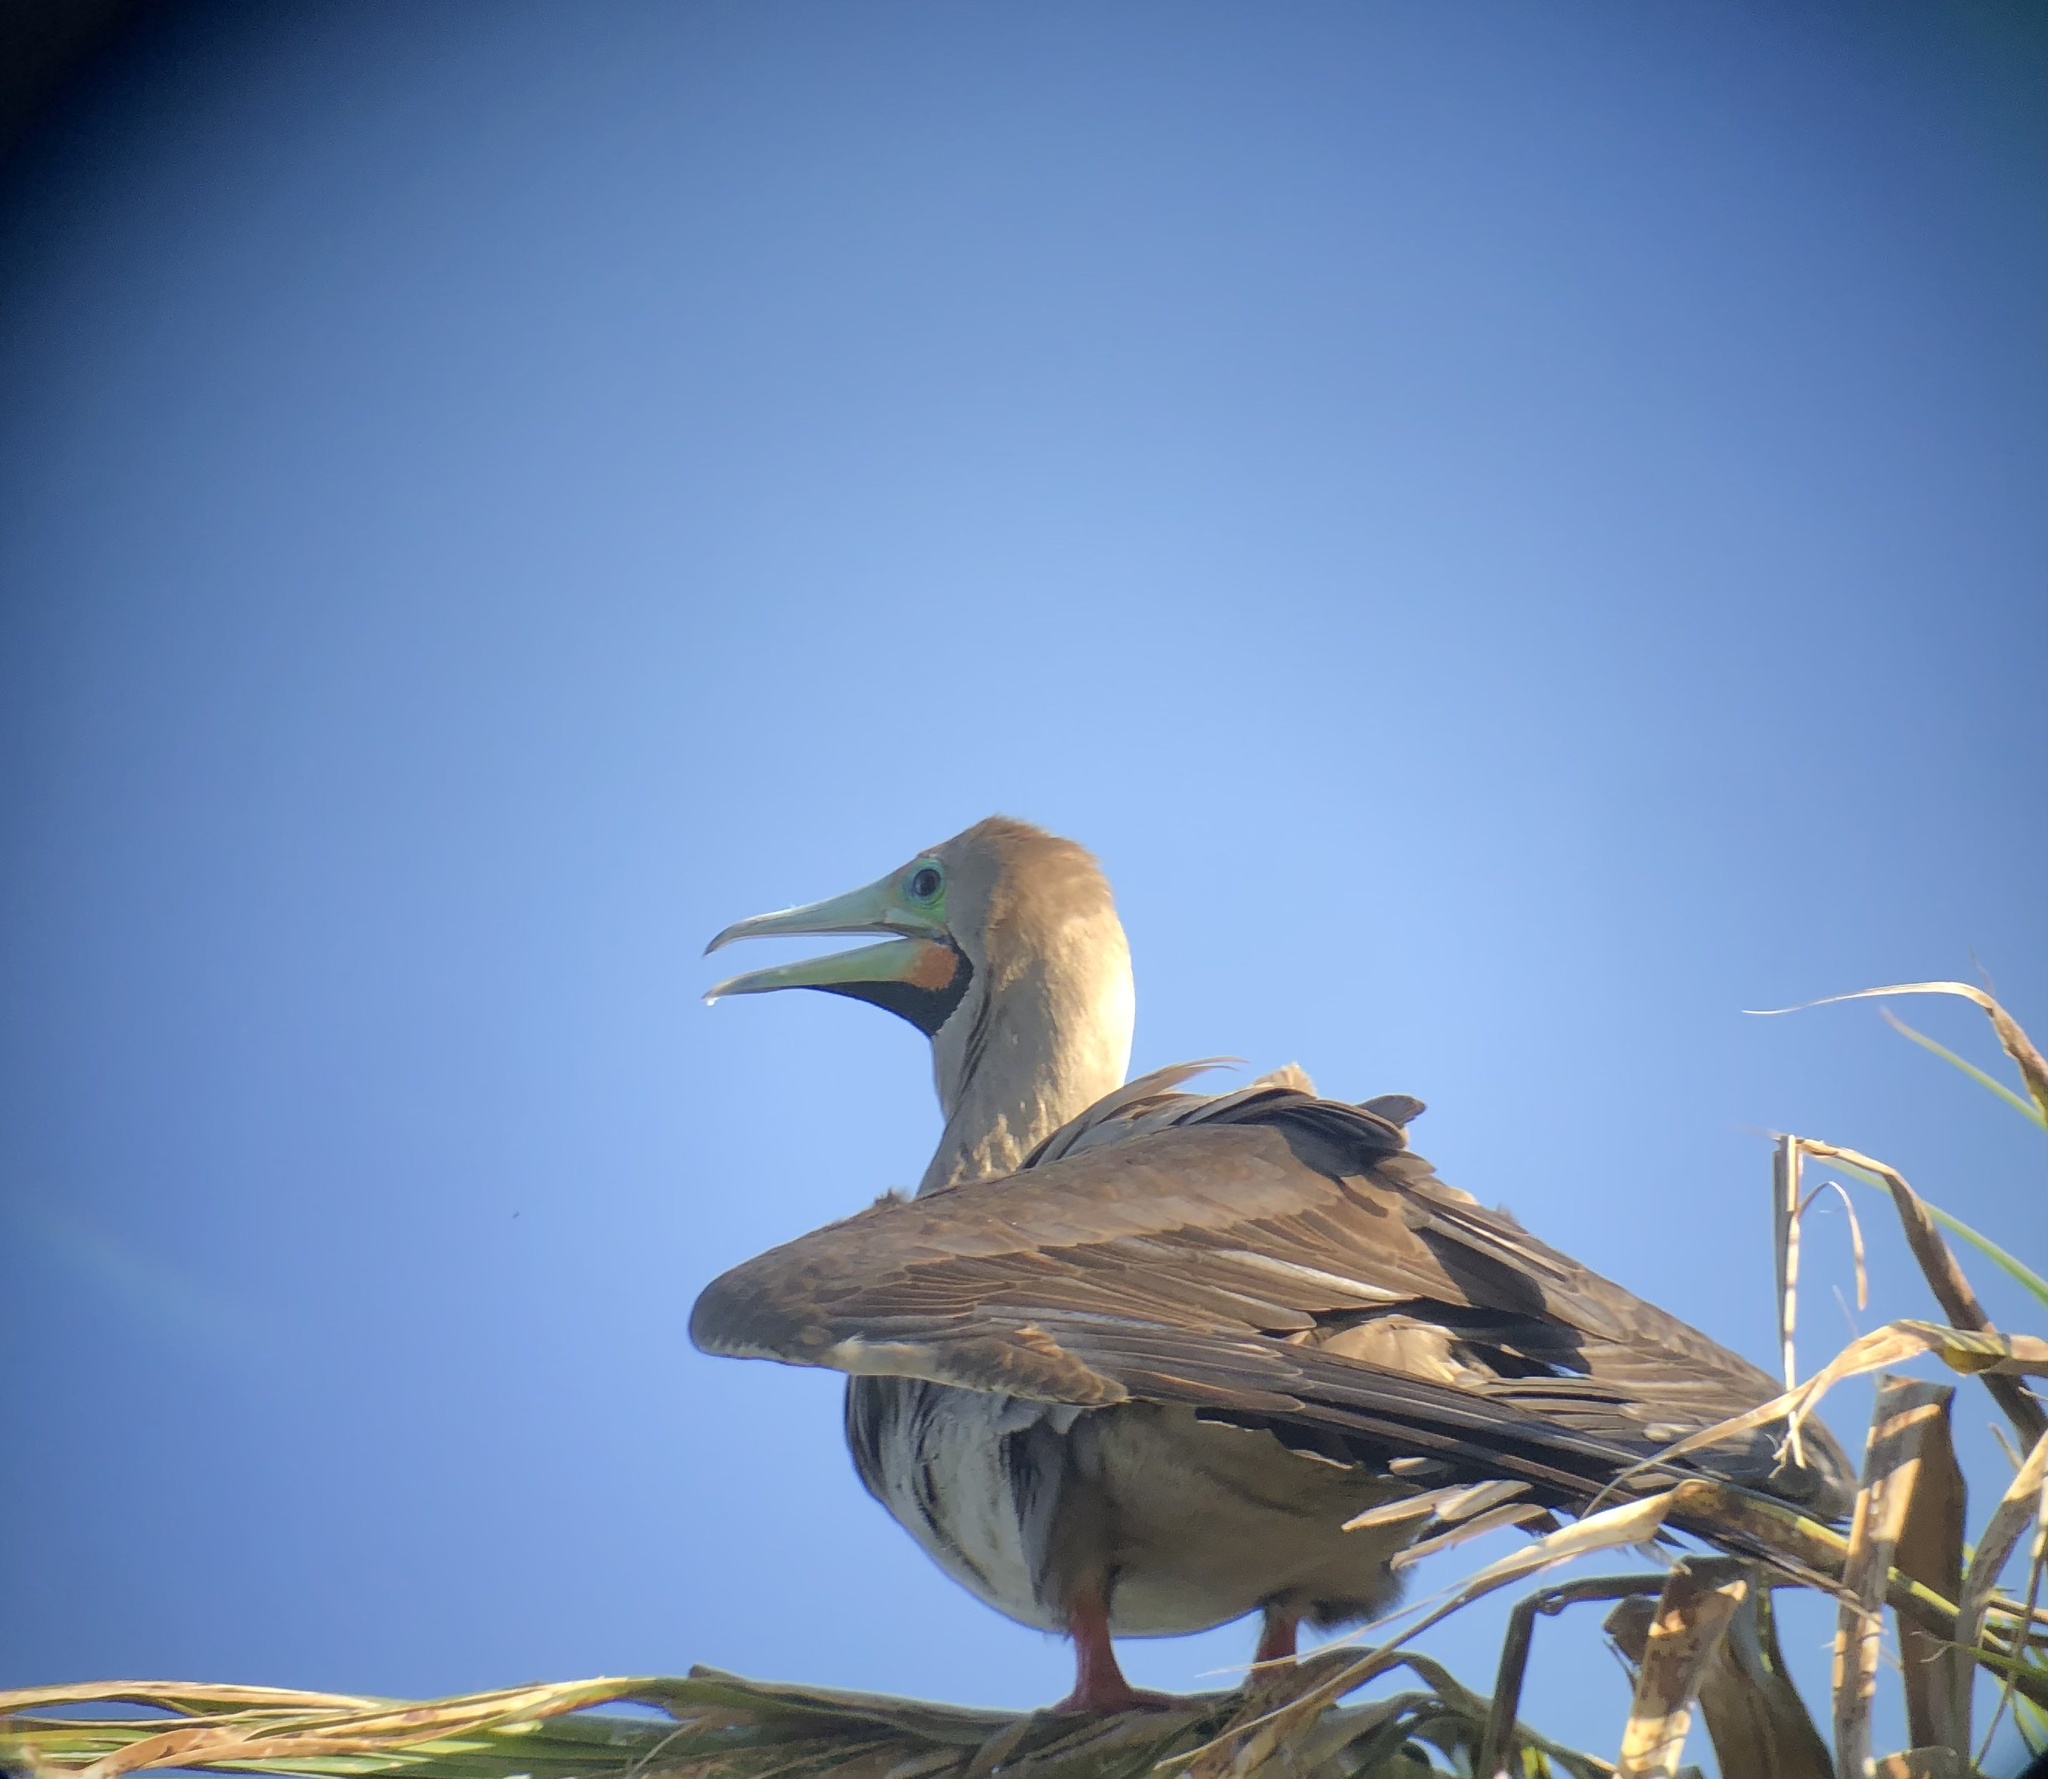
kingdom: Animalia
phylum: Chordata
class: Aves
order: Suliformes
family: Sulidae
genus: Sula
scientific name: Sula sula
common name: Red-footed booby
